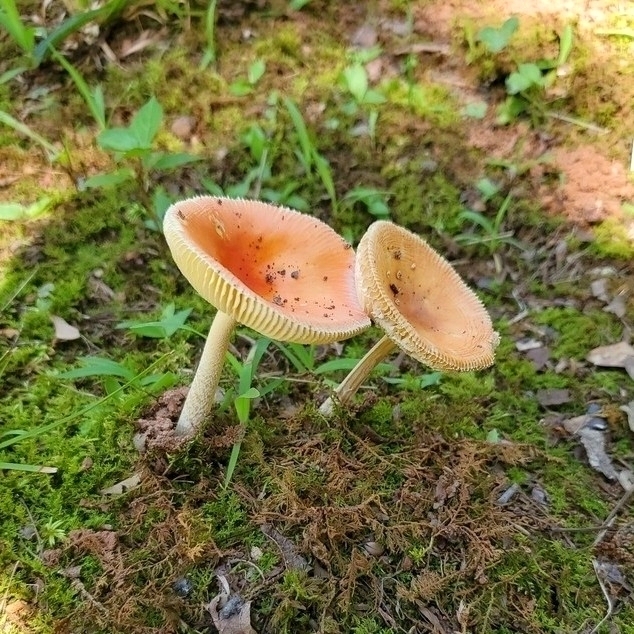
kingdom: Fungi
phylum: Basidiomycota
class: Agaricomycetes
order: Agaricales
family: Amanitaceae
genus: Amanita
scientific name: Amanita parcivolvata
